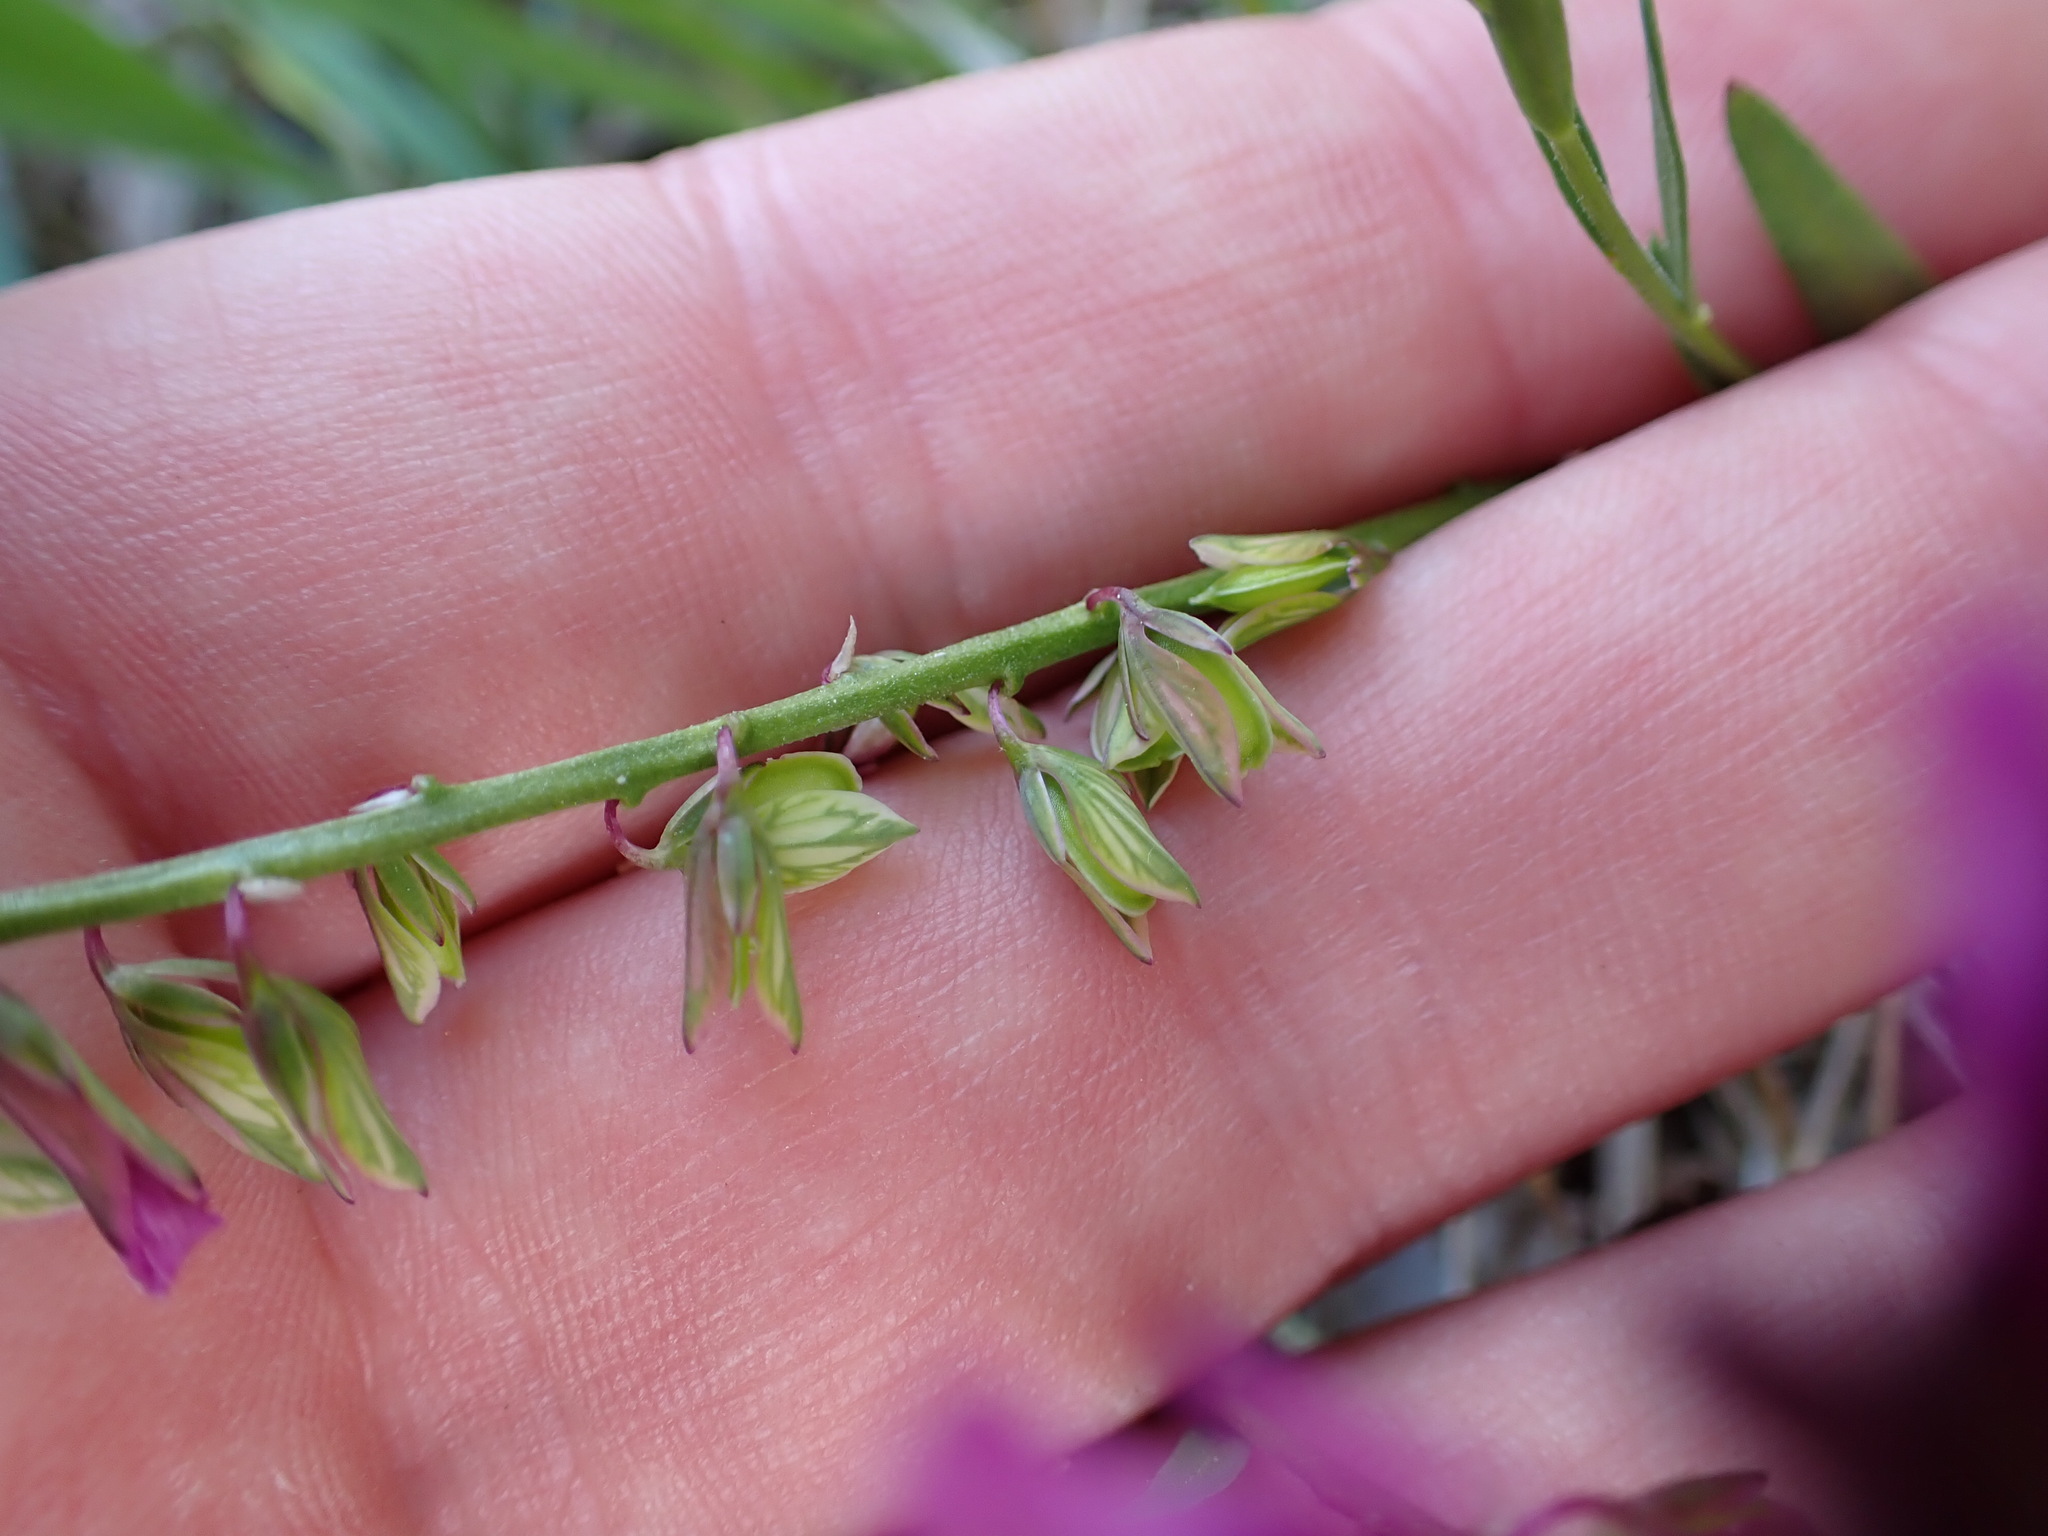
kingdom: Plantae
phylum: Tracheophyta
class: Magnoliopsida
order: Fabales
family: Polygalaceae
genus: Polygala
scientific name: Polygala
